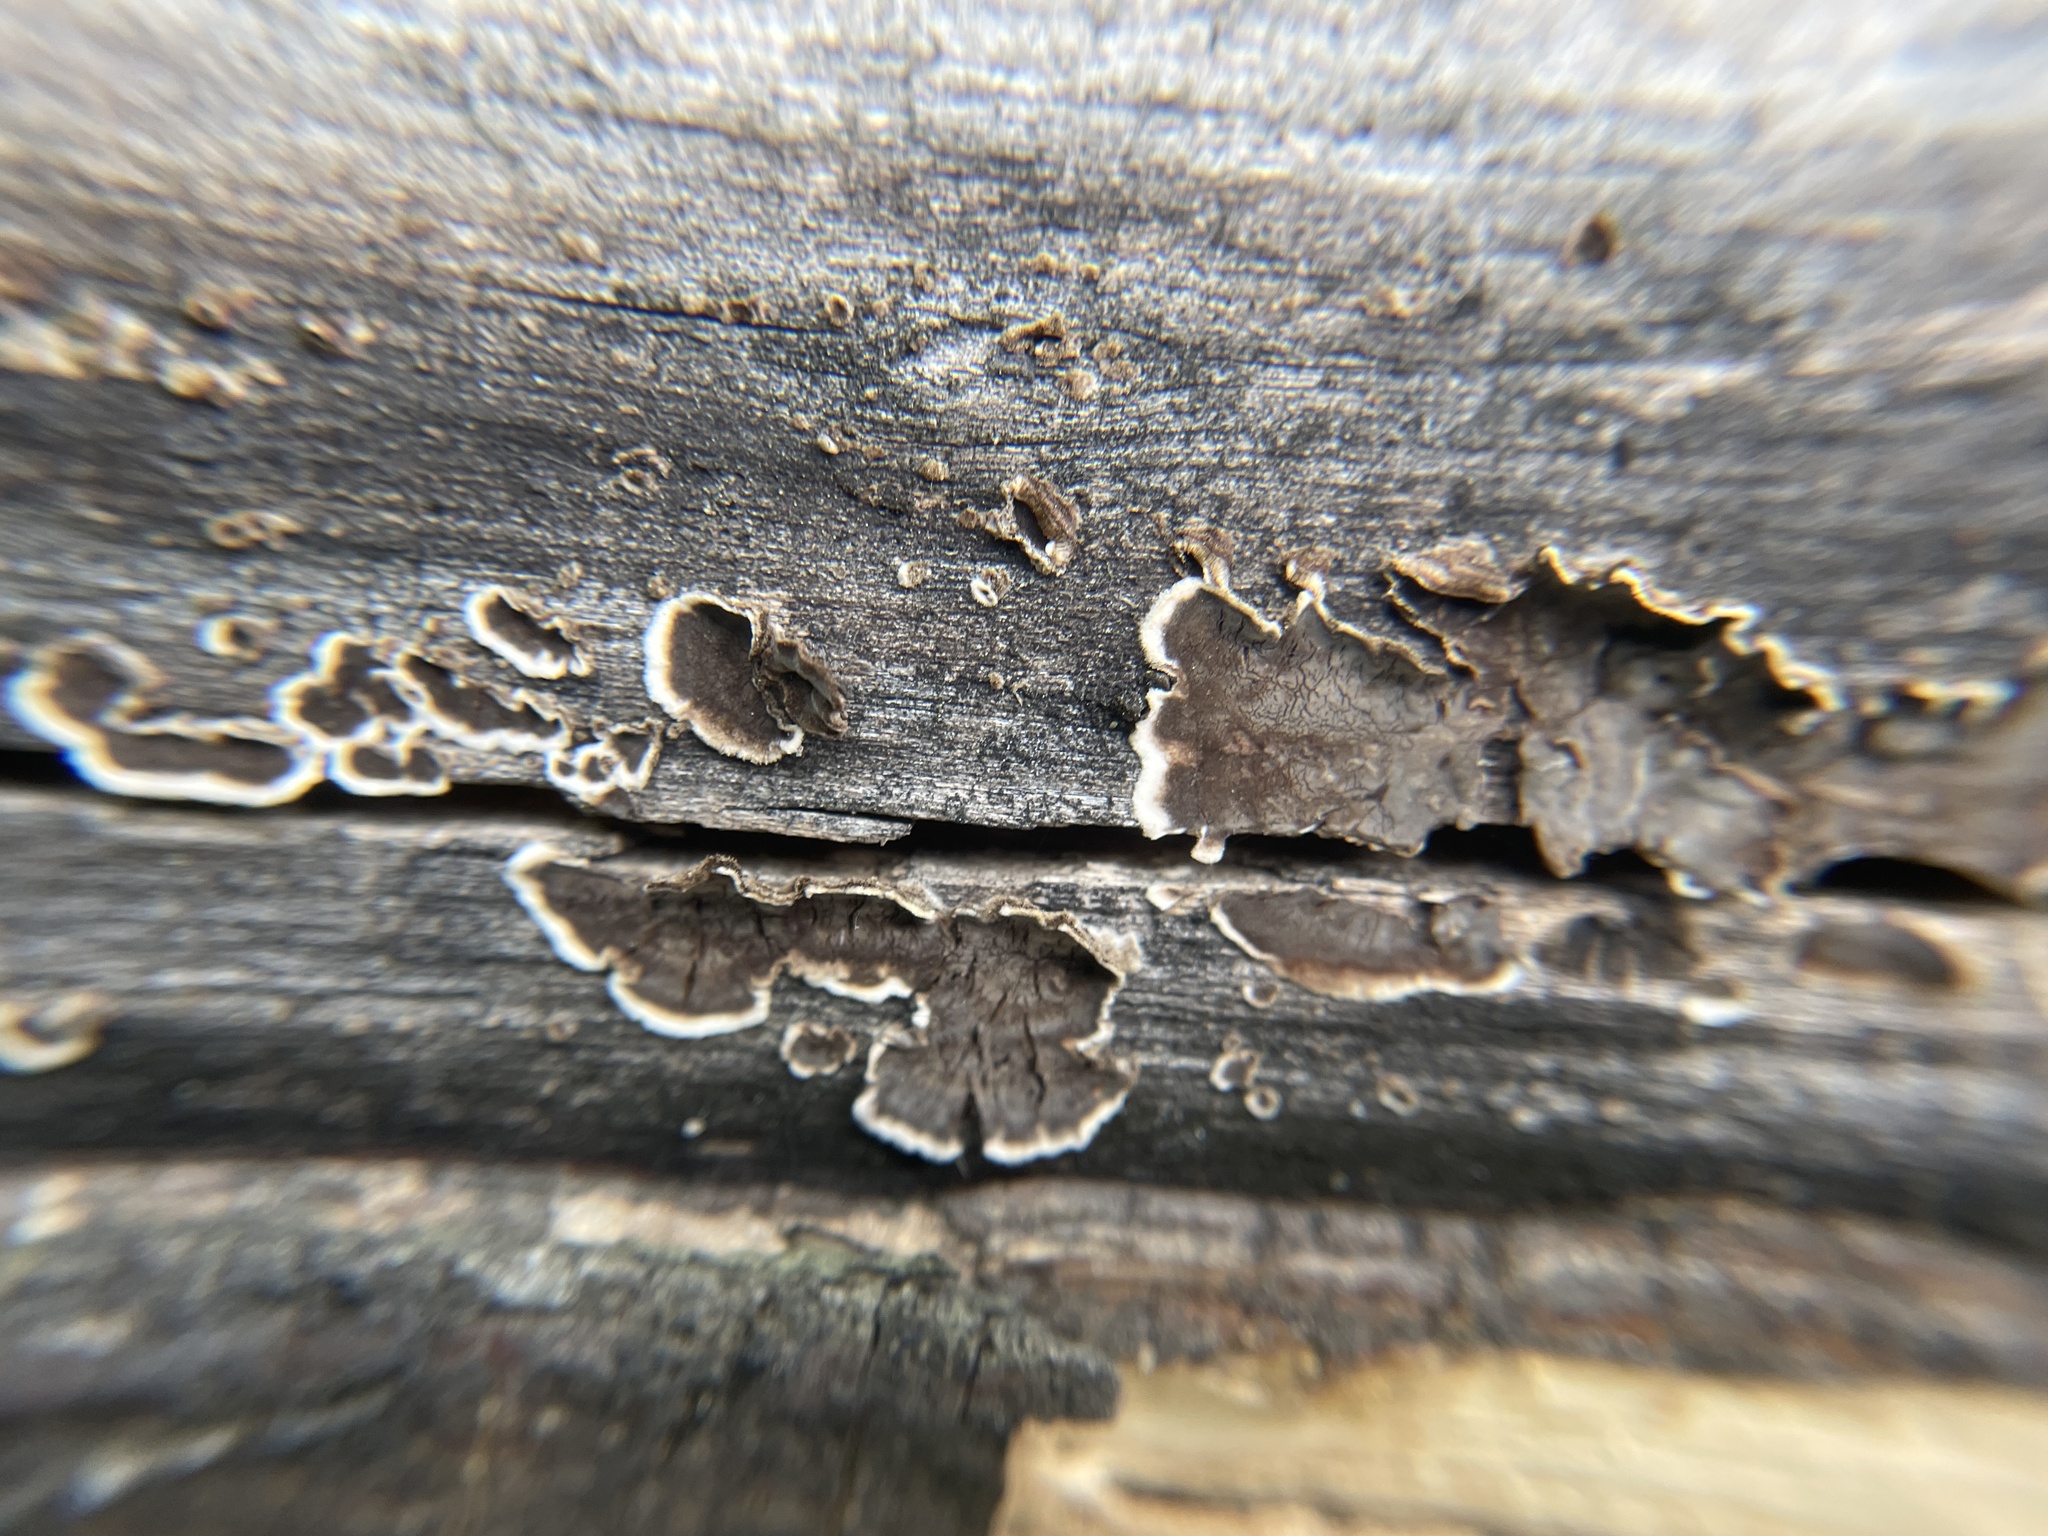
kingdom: Fungi
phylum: Basidiomycota
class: Agaricomycetes
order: Russulales
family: Peniophoraceae
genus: Peniophora
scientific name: Peniophora albobadia
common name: Giraffe spots
